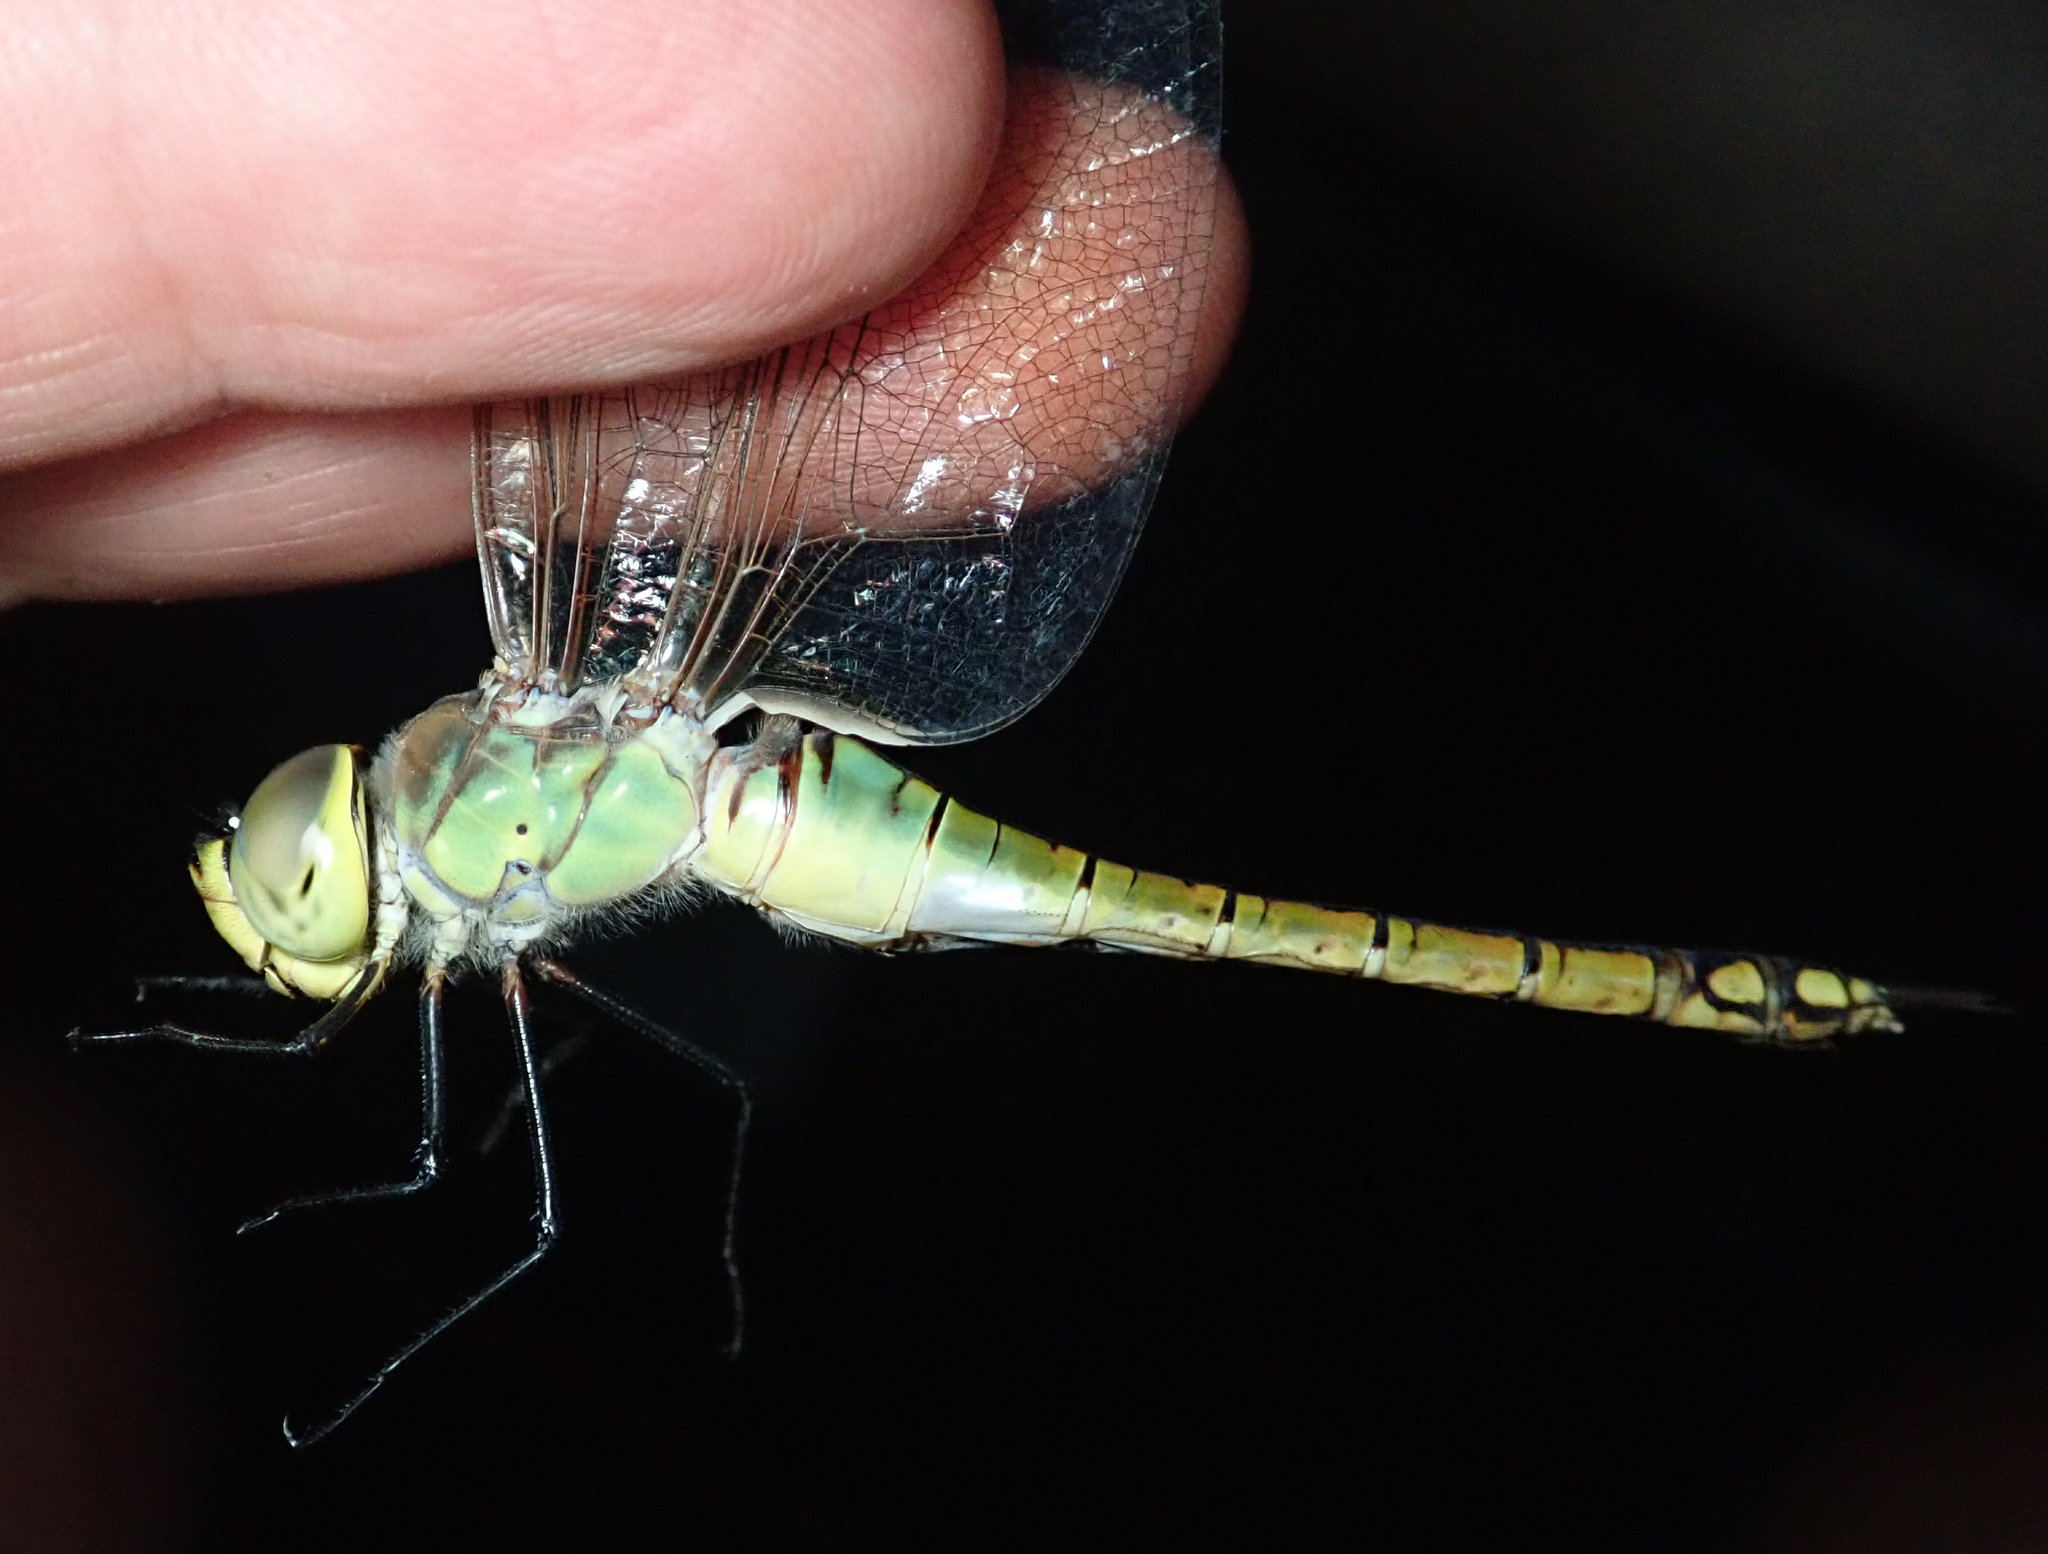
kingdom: Animalia
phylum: Arthropoda
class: Insecta
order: Odonata
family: Aeshnidae
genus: Anax
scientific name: Anax ephippiger
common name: Vagrant emperor
